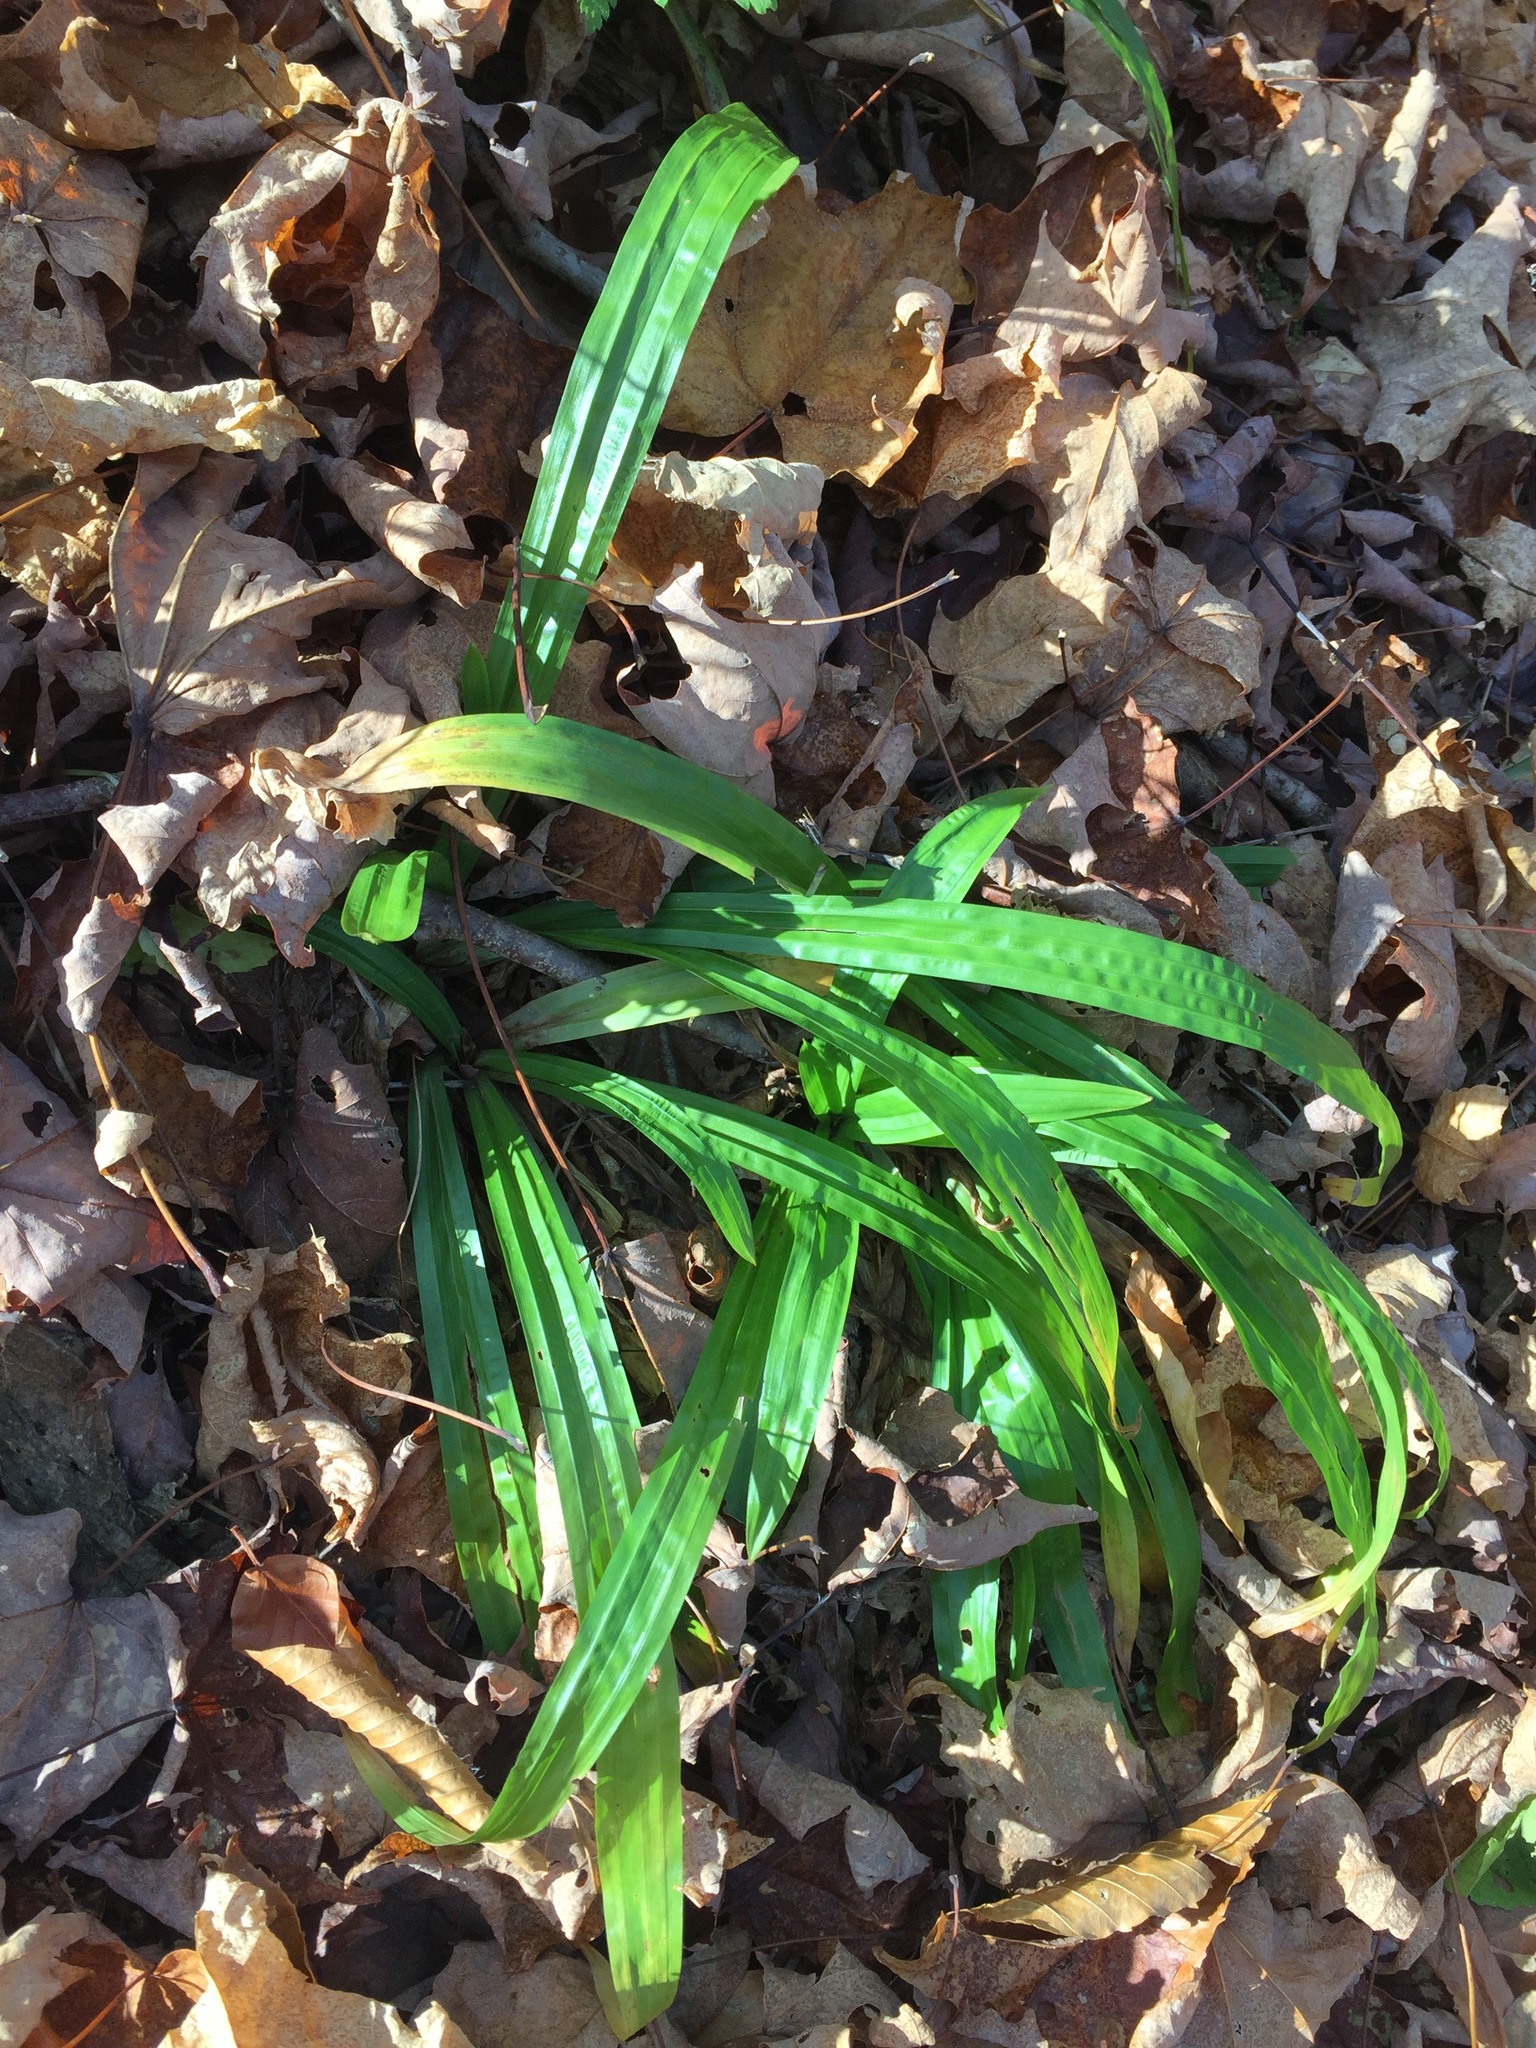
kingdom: Plantae
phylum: Tracheophyta
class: Liliopsida
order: Poales
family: Cyperaceae
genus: Carex
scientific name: Carex plantaginea
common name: Plantain-leaved sedge
